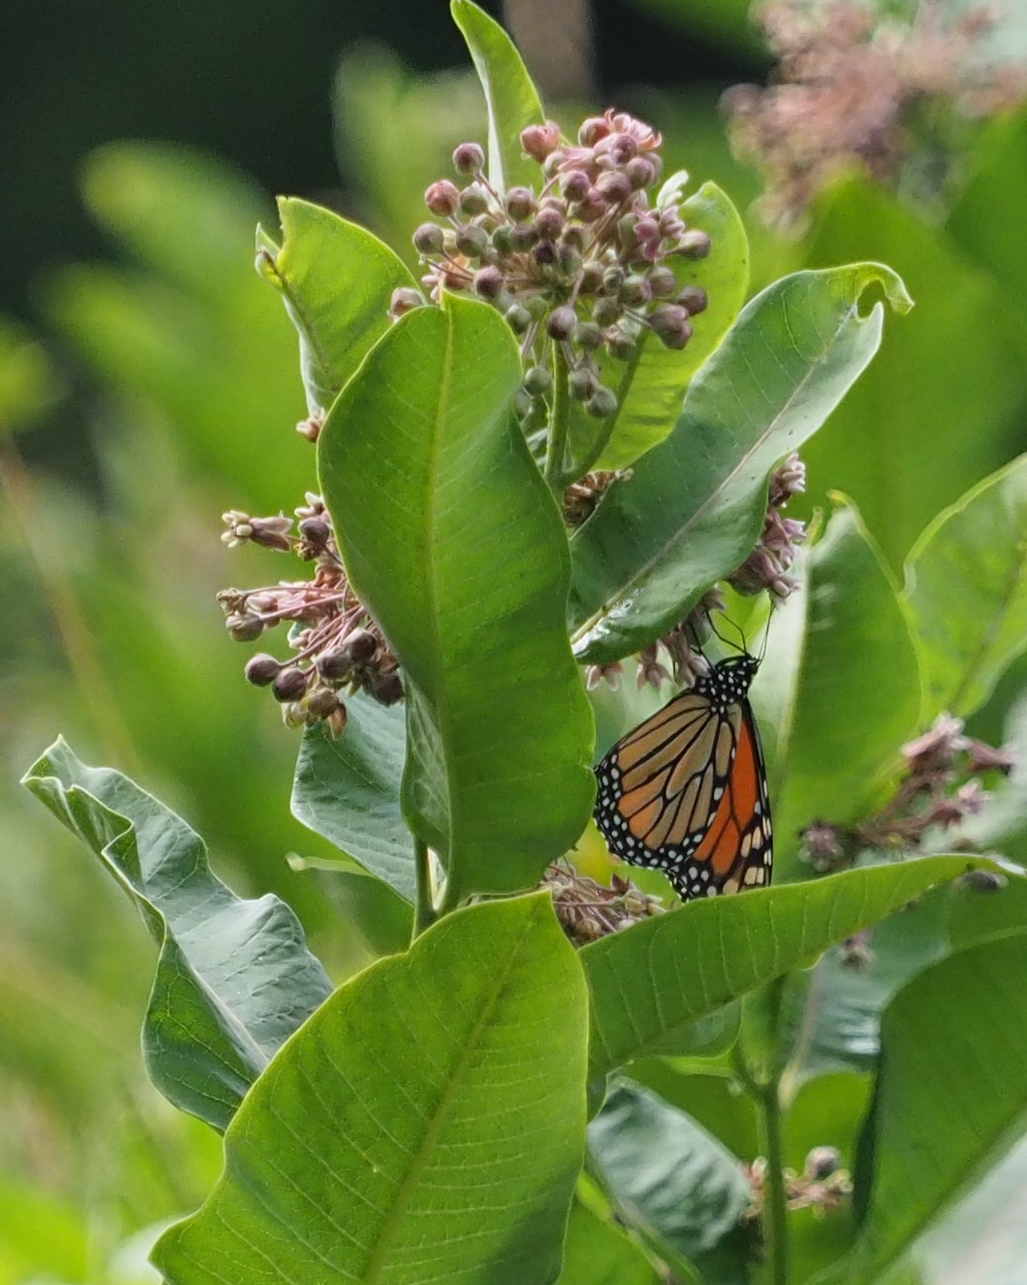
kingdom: Animalia
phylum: Arthropoda
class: Insecta
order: Lepidoptera
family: Nymphalidae
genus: Danaus
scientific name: Danaus plexippus
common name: Monarch
